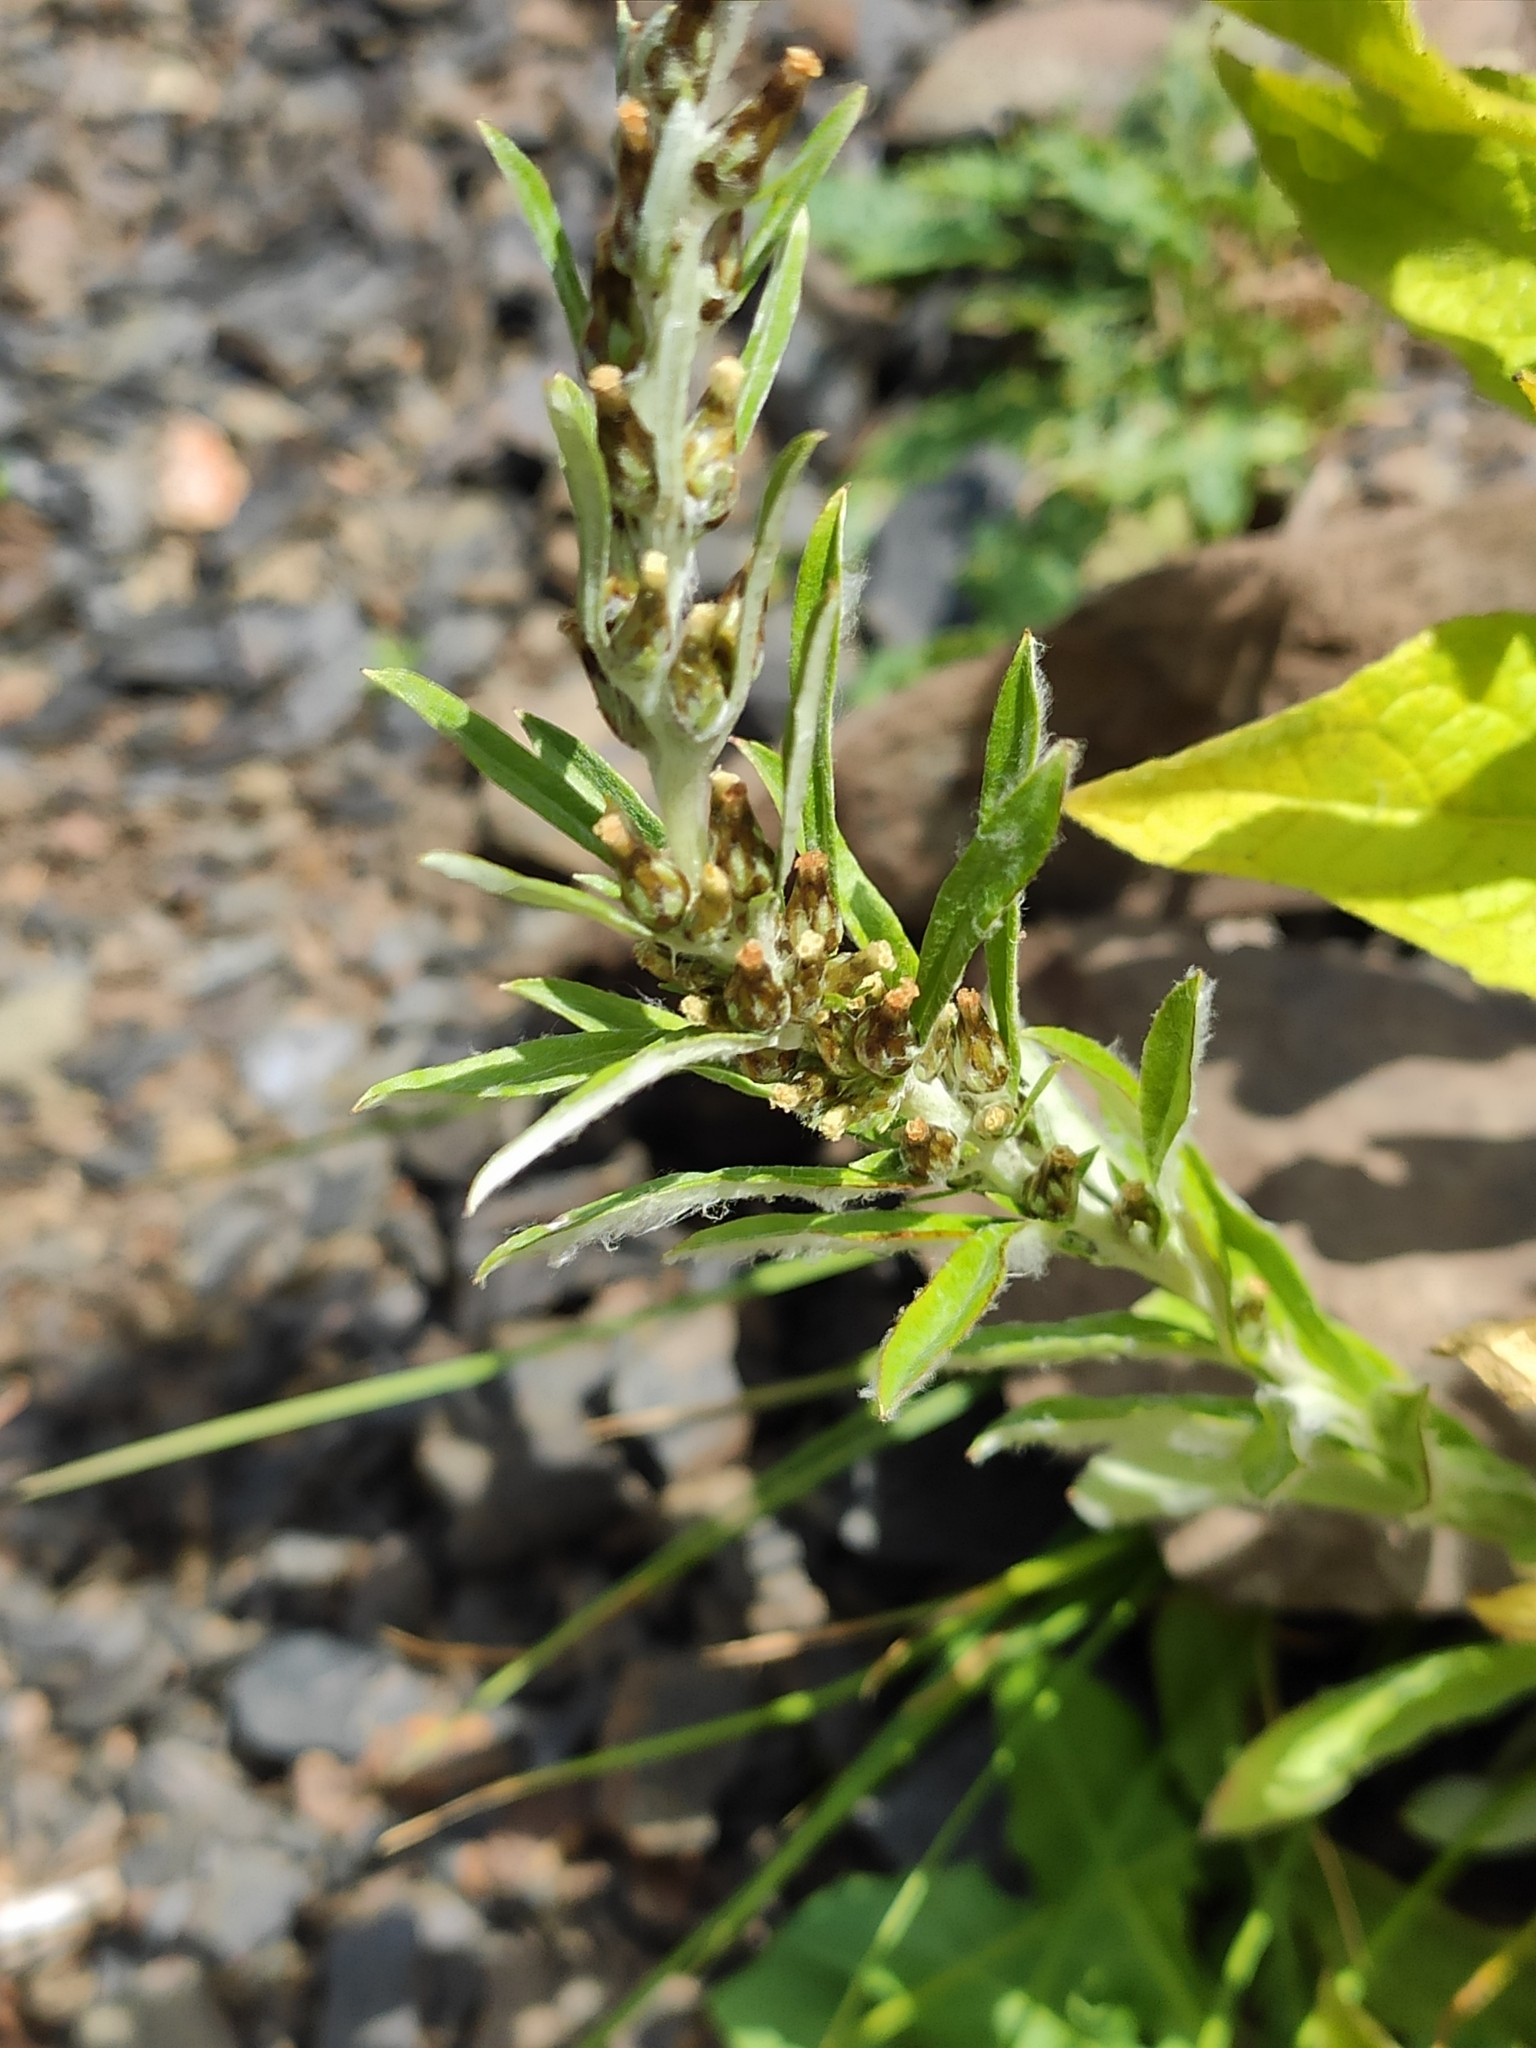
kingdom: Plantae
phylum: Tracheophyta
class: Magnoliopsida
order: Asterales
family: Asteraceae
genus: Omalotheca
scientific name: Omalotheca sylvatica
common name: Heath cudweed
